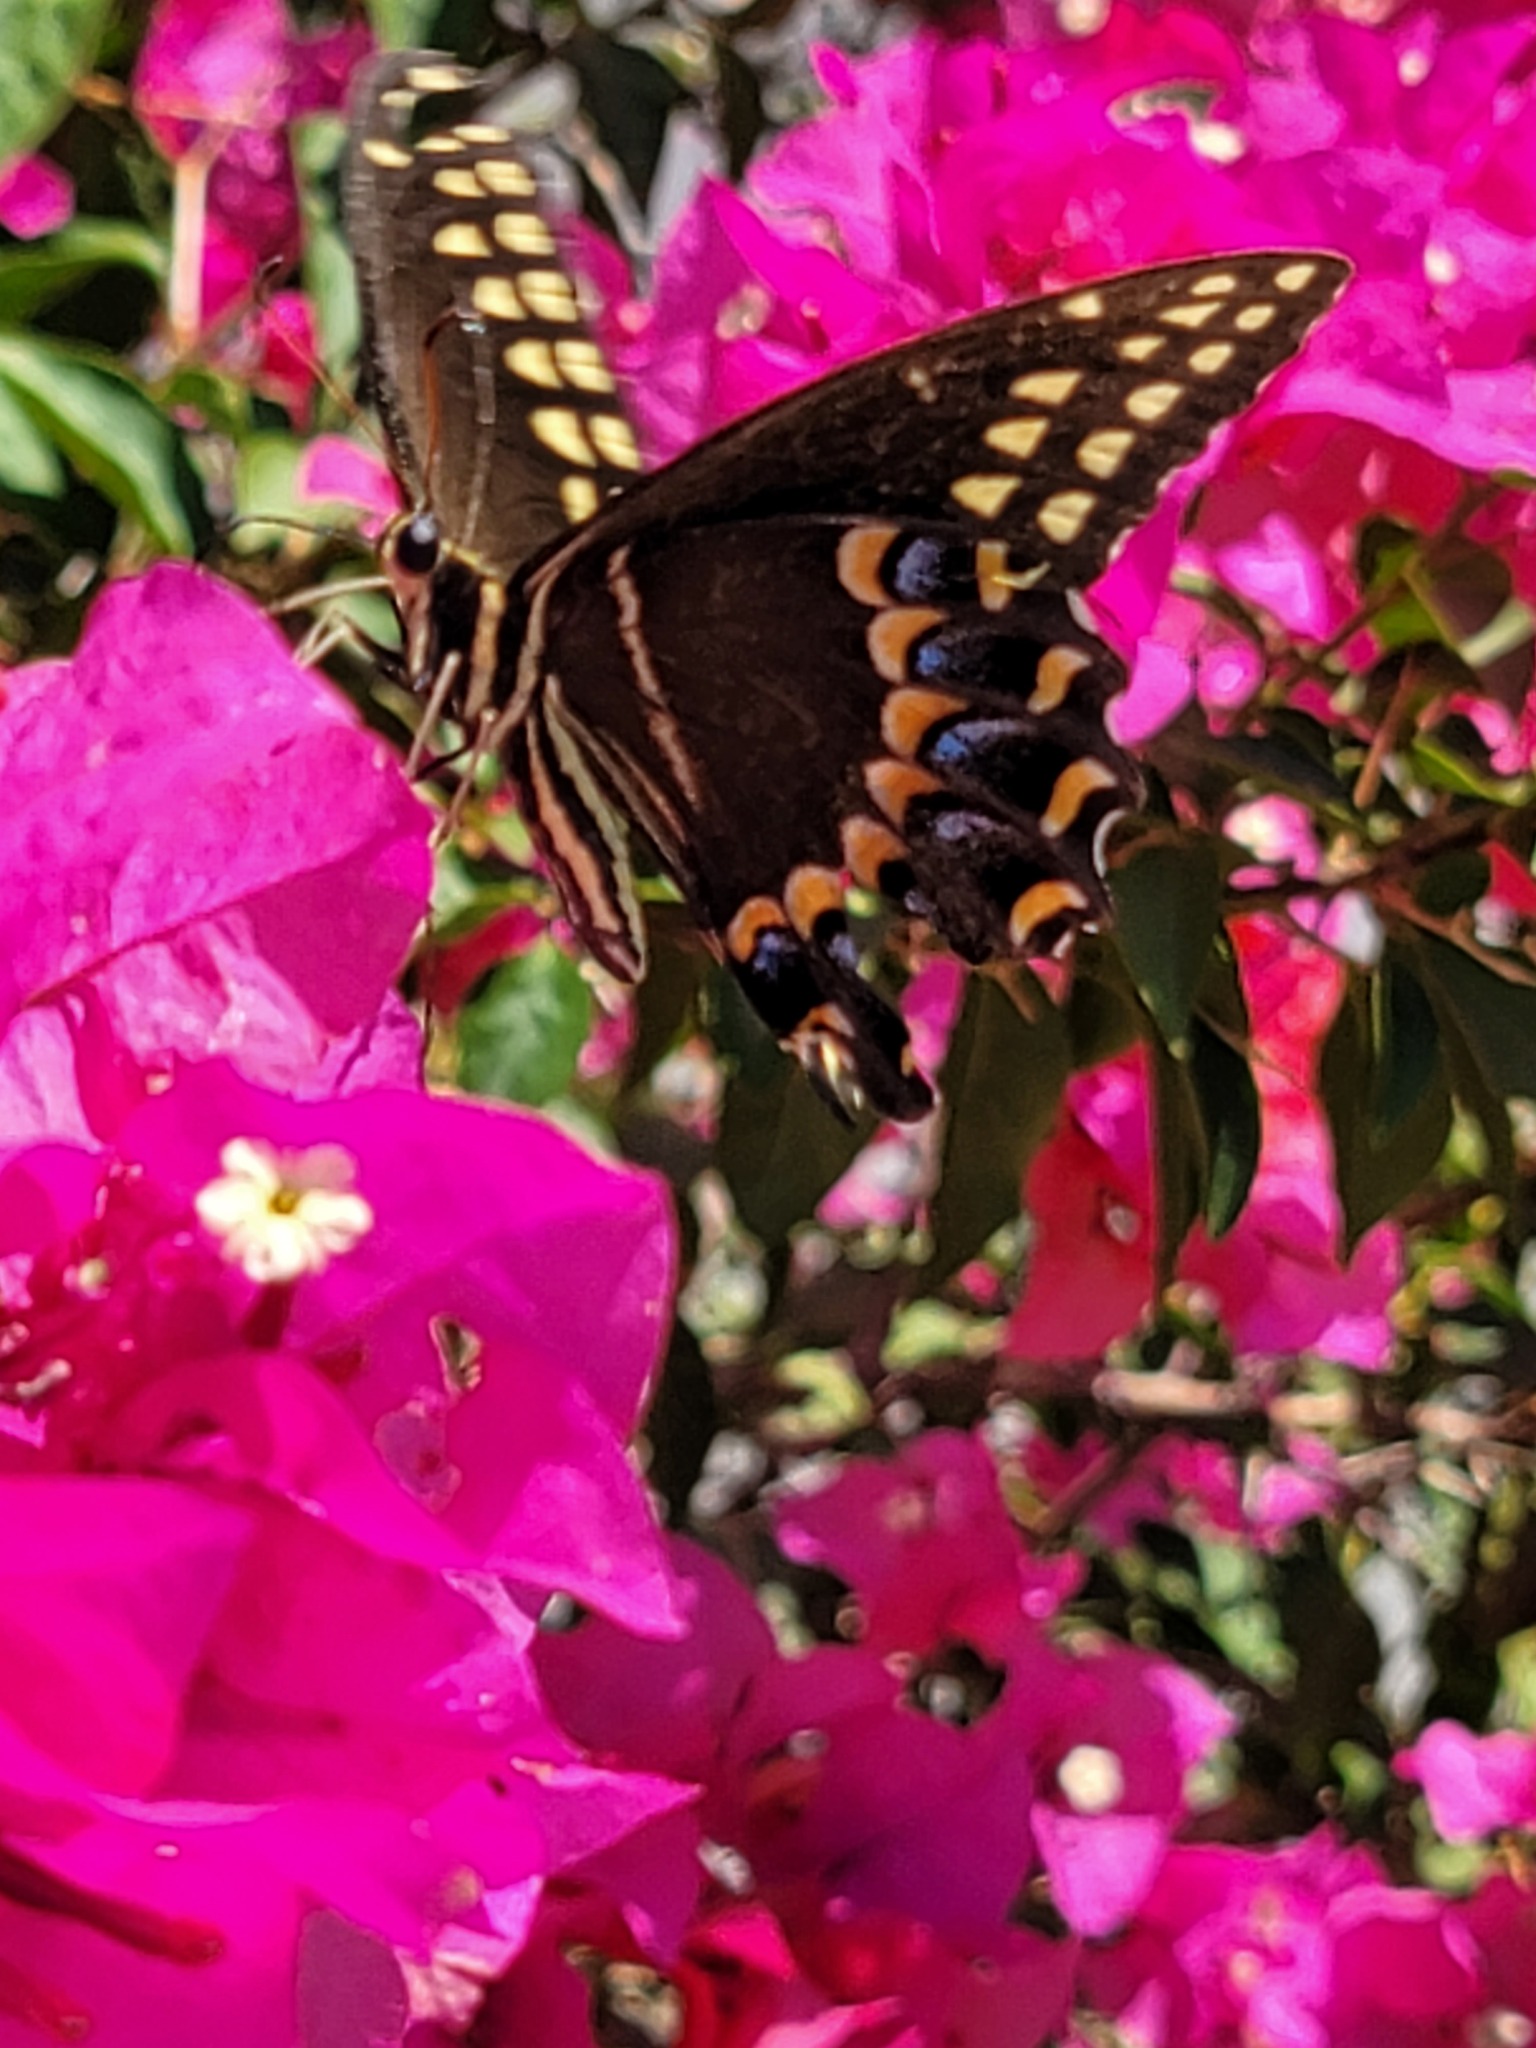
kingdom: Animalia
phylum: Arthropoda
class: Insecta
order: Lepidoptera
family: Papilionidae
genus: Papilio
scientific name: Papilio palamedes
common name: Palamedes swallowtail
